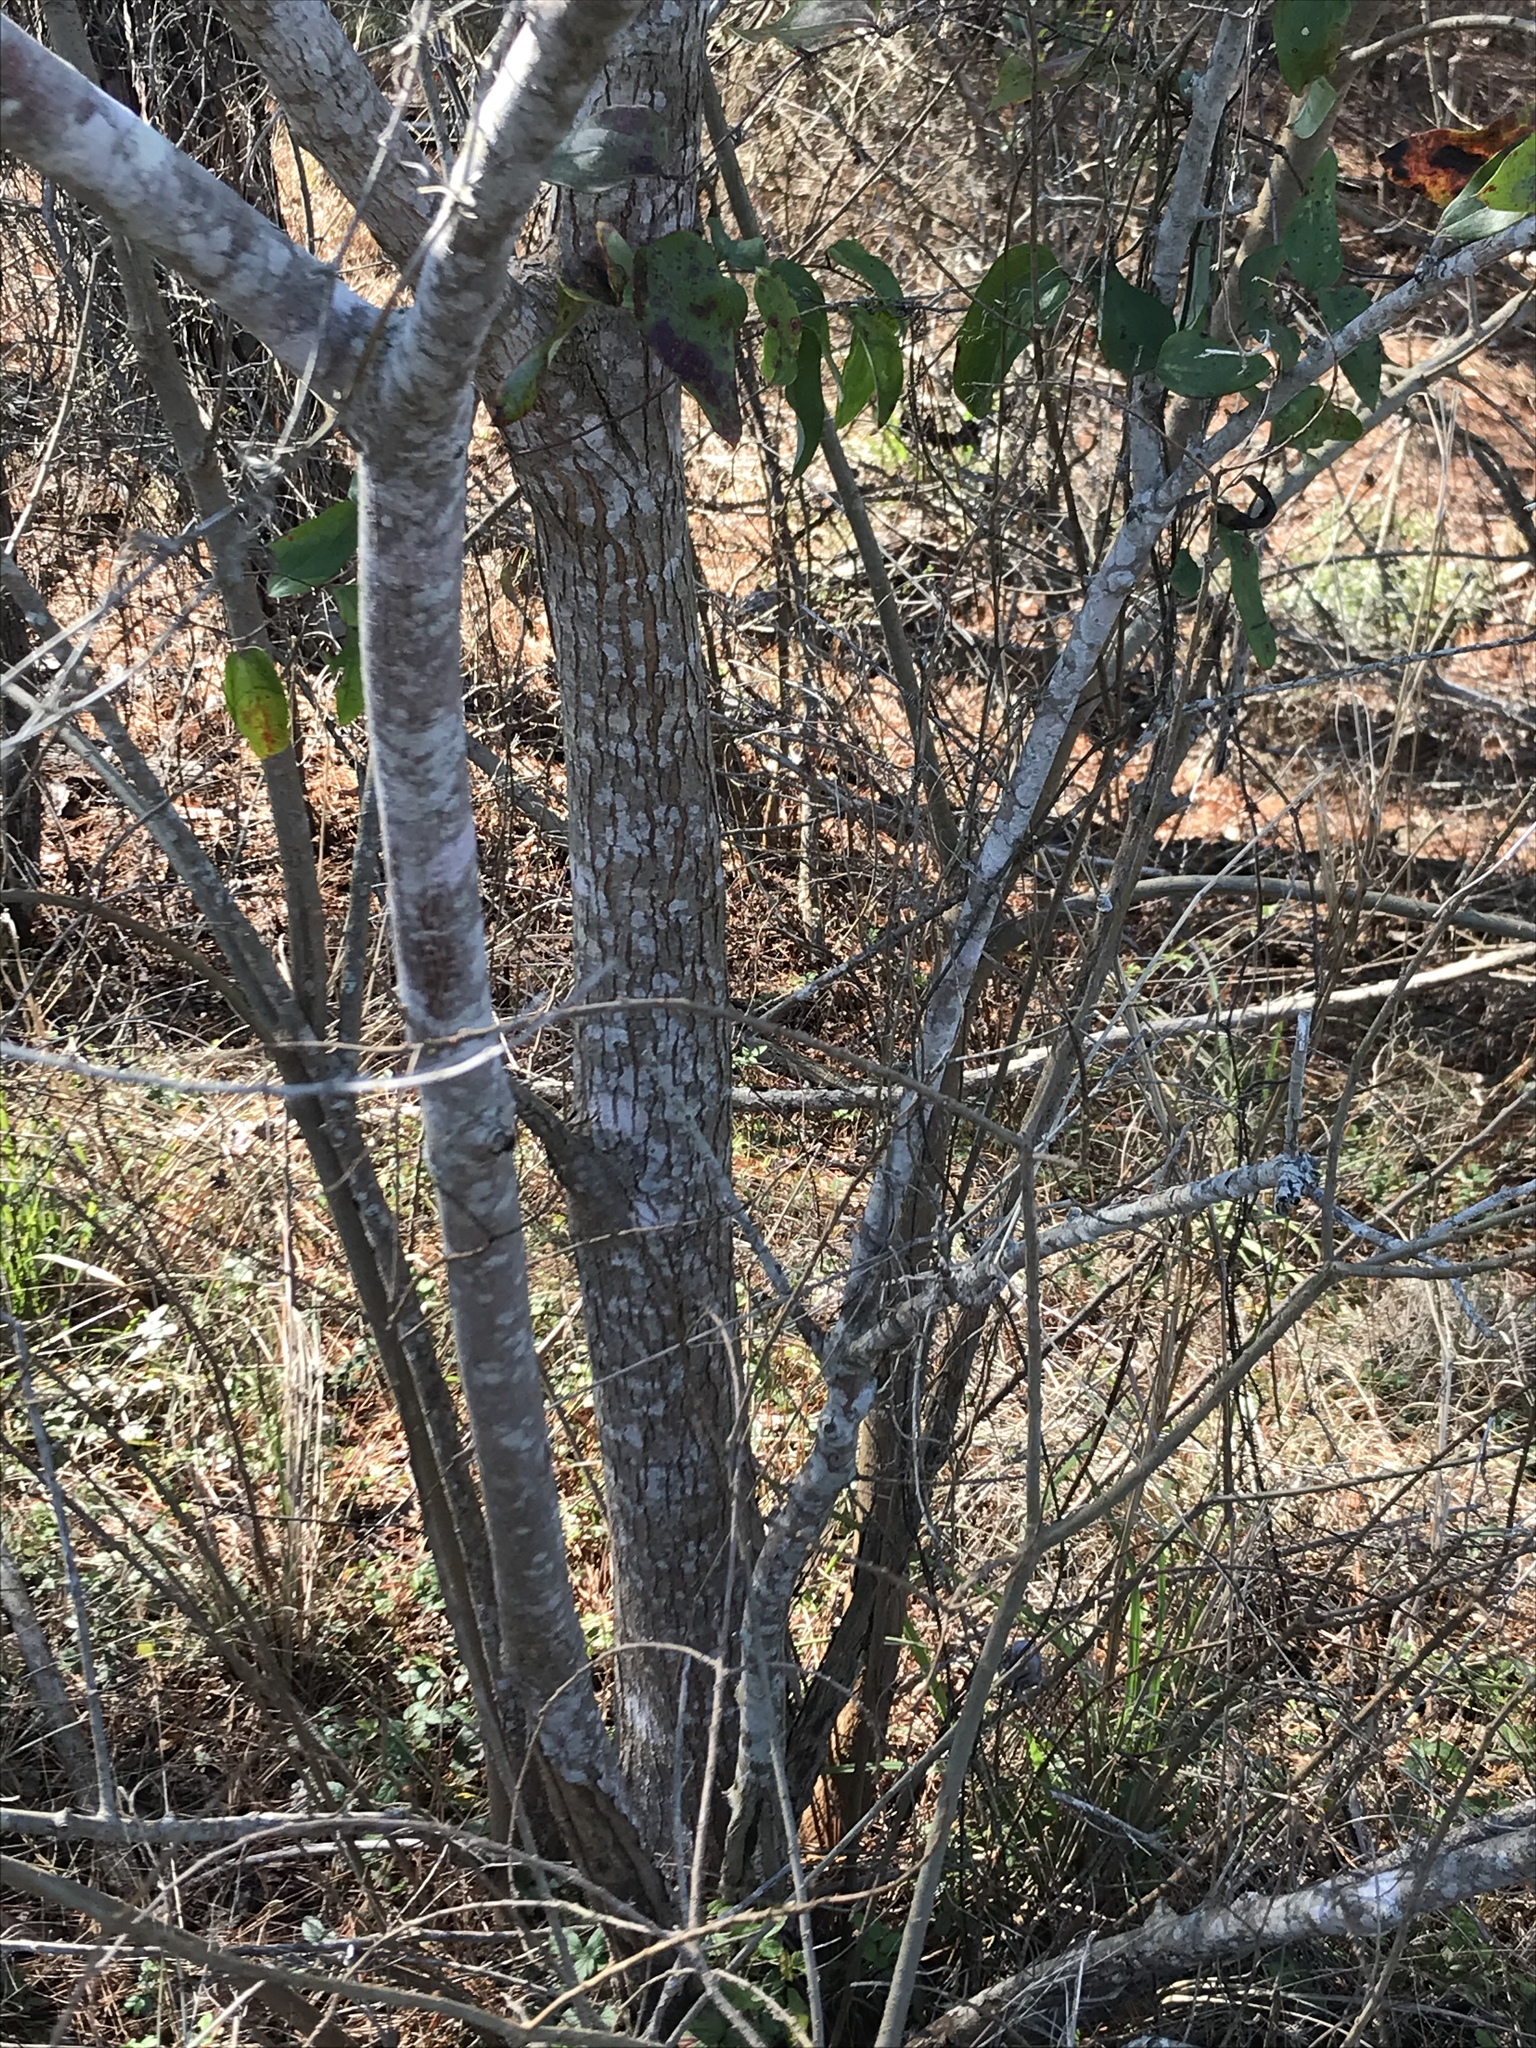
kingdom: Plantae
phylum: Tracheophyta
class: Magnoliopsida
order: Malpighiales
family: Euphorbiaceae
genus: Triadica
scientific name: Triadica sebifera
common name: Chinese tallow
